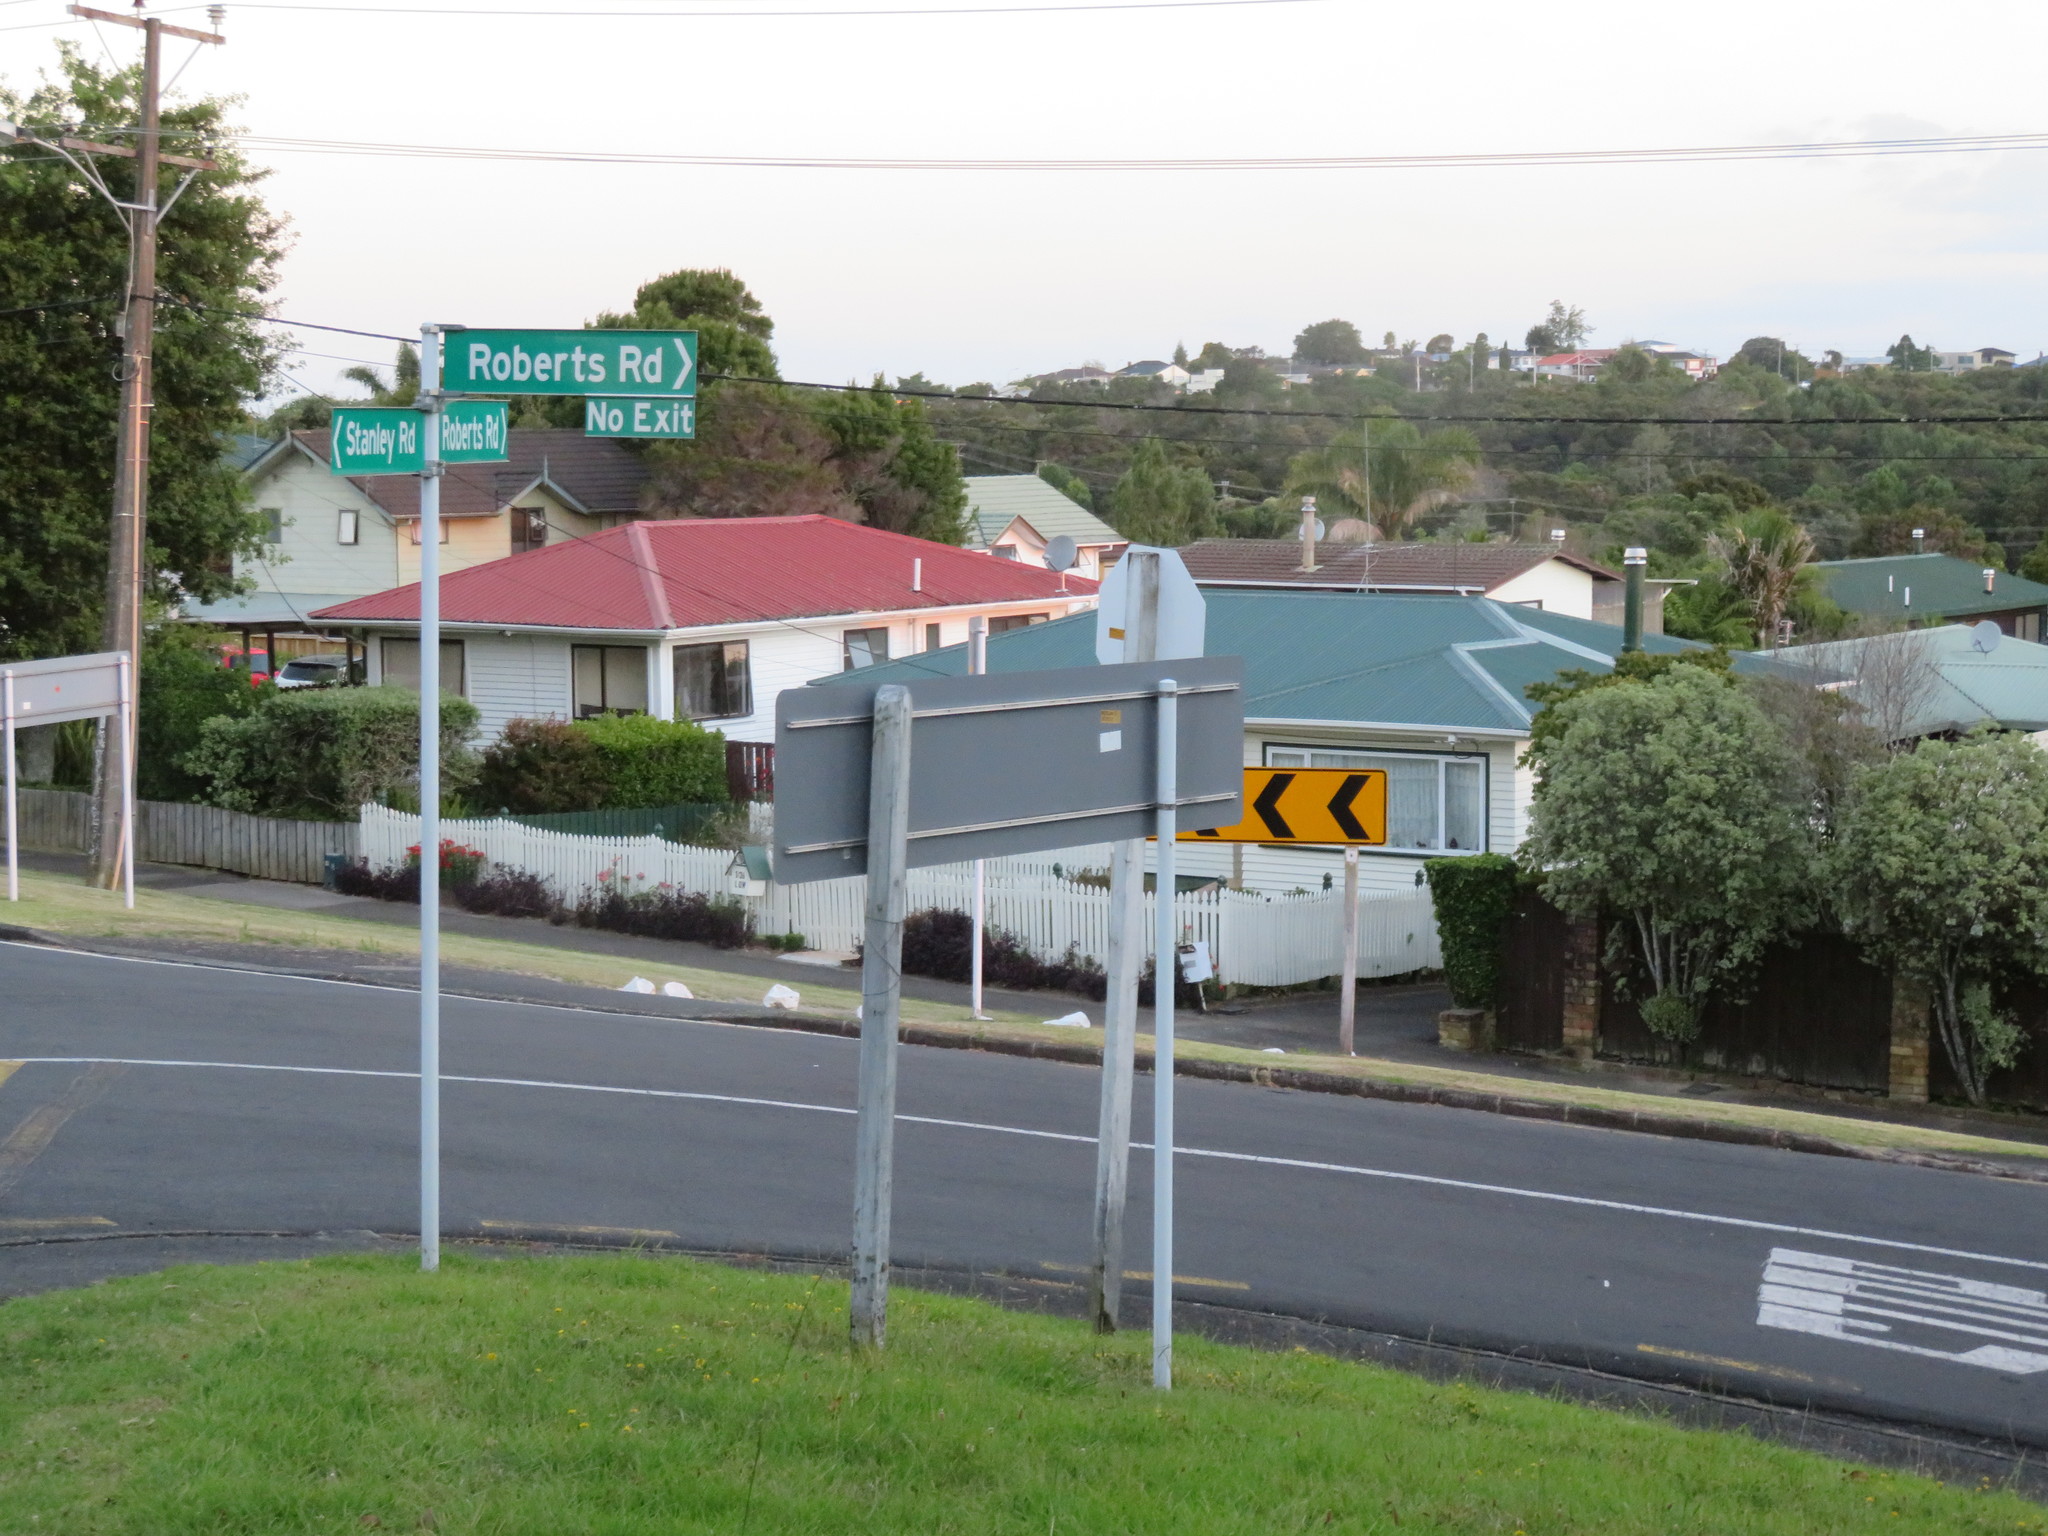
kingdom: Plantae
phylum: Tracheophyta
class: Magnoliopsida
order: Gentianales
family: Apocynaceae
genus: Araujia
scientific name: Araujia sericifera
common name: White bladderflower
